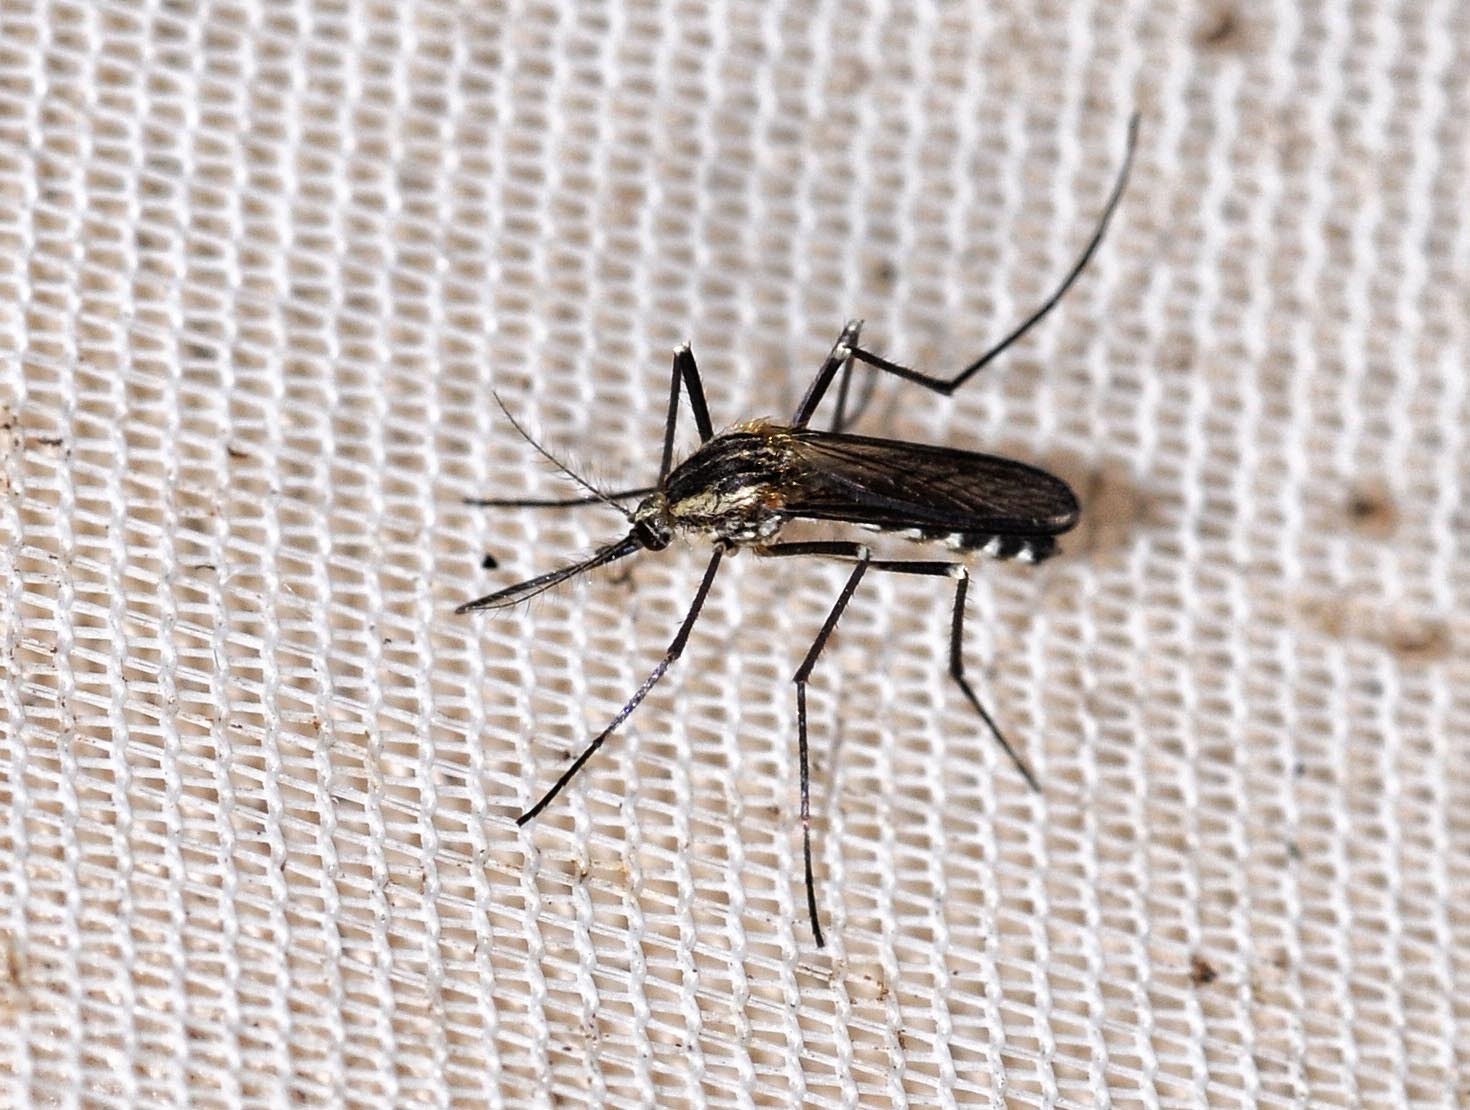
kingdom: Animalia
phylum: Arthropoda
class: Insecta
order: Diptera
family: Culicidae
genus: Aedes
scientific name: Aedes geniculatus
